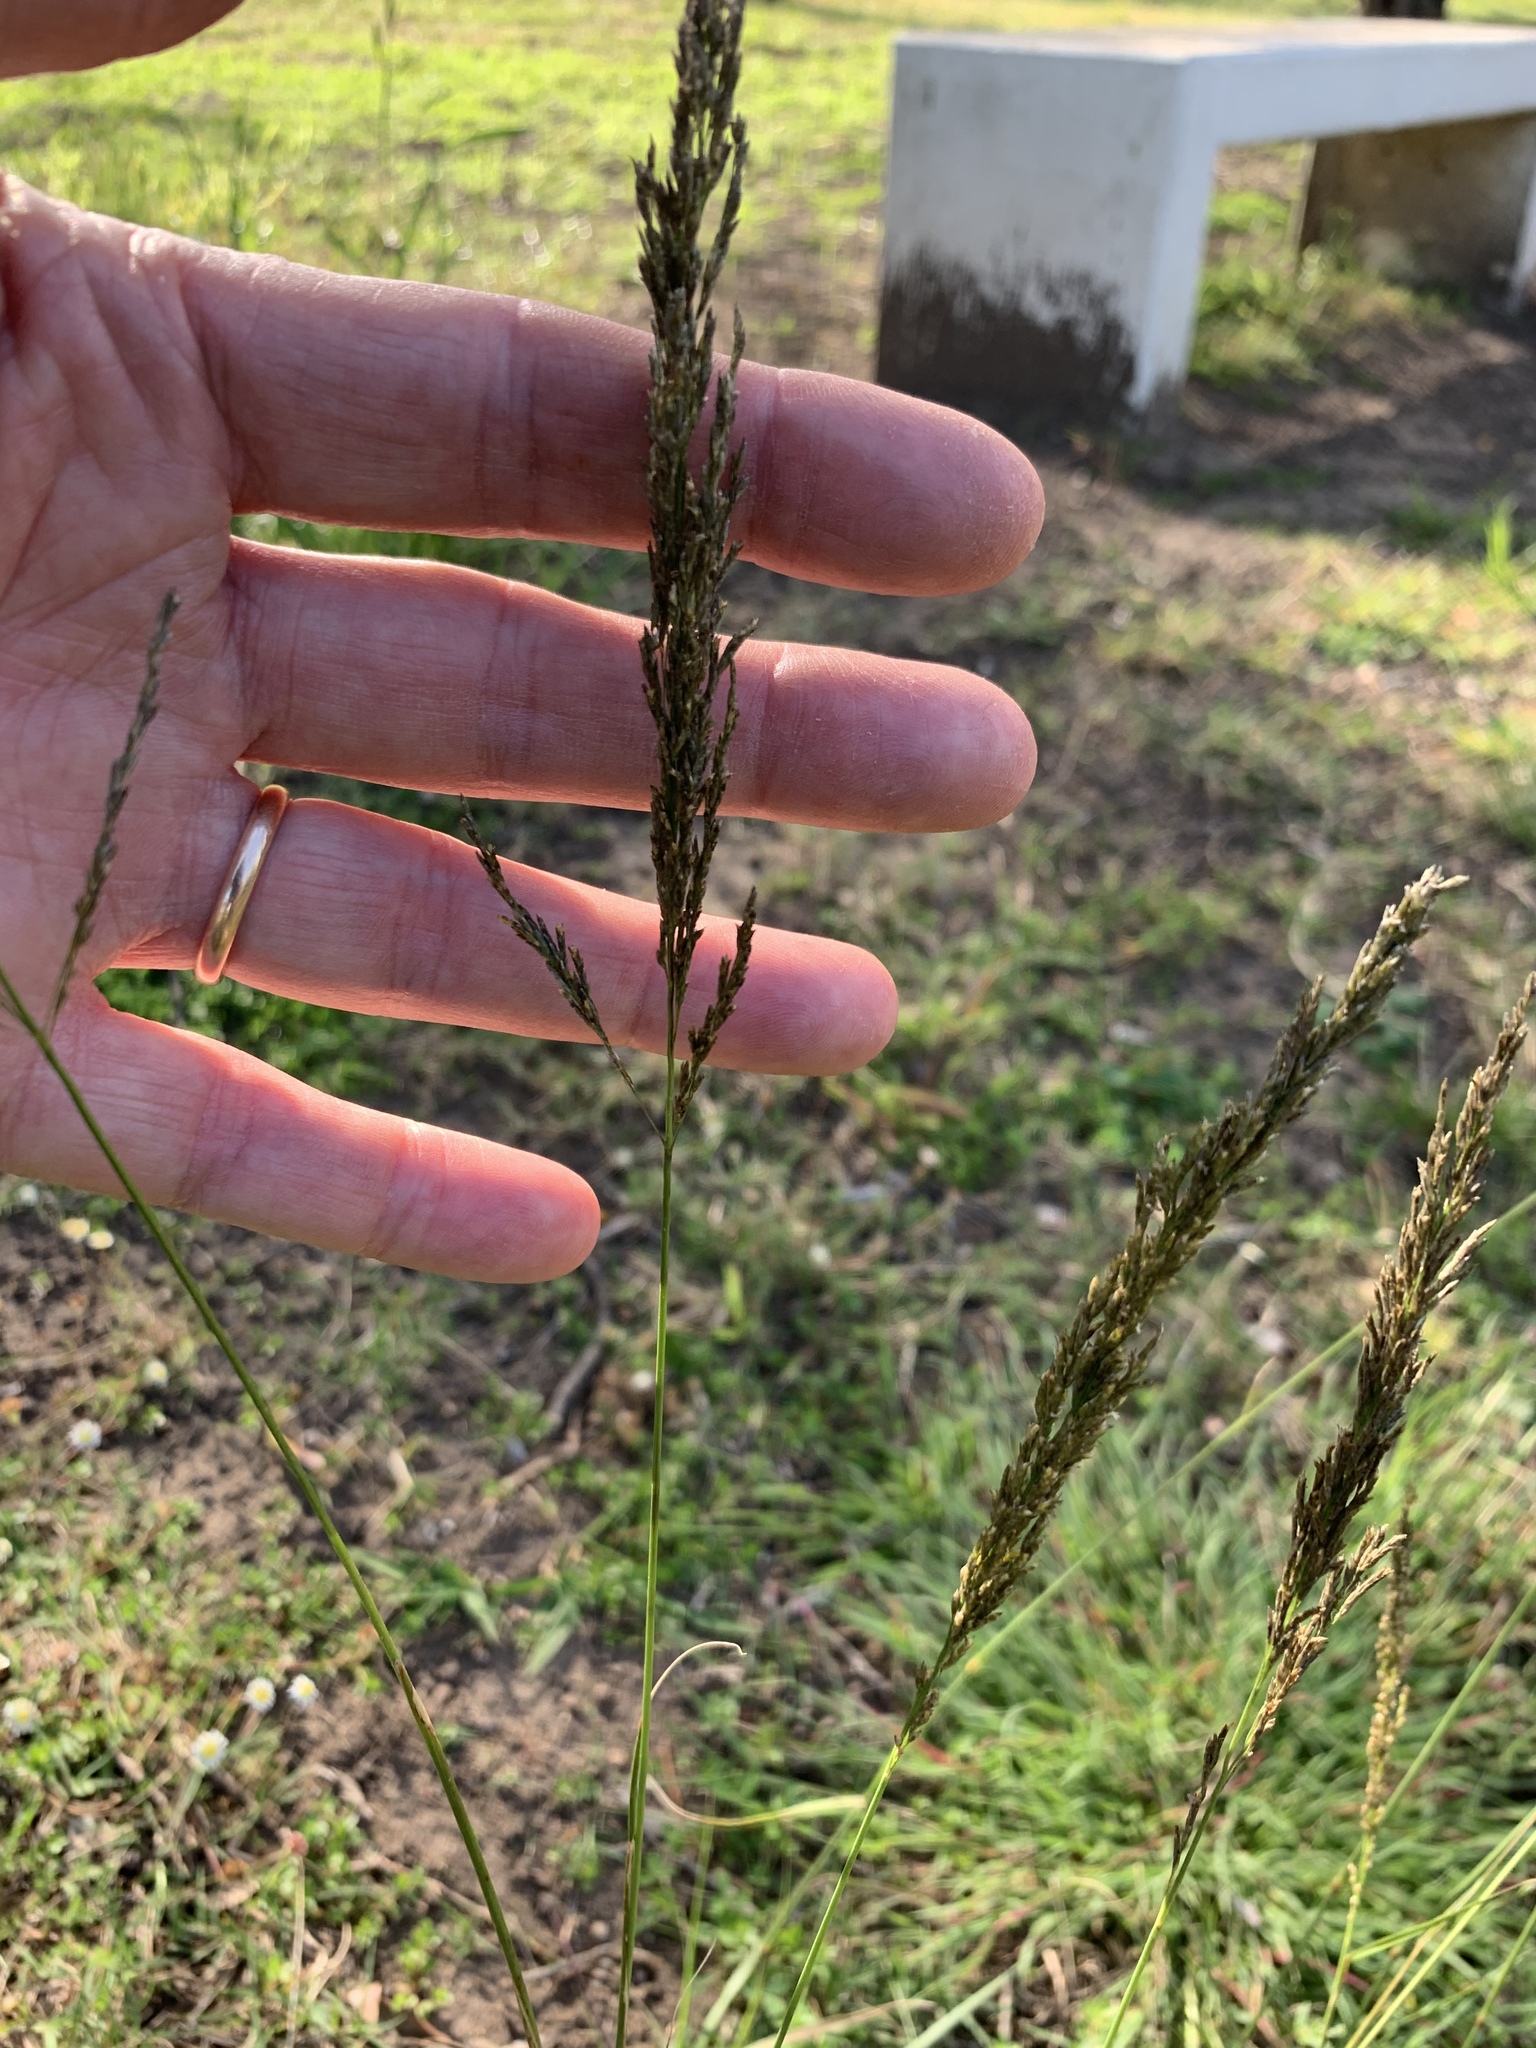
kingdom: Plantae
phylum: Tracheophyta
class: Liliopsida
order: Poales
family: Poaceae
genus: Eragrostis
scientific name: Eragrostis curvula
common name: African love-grass
